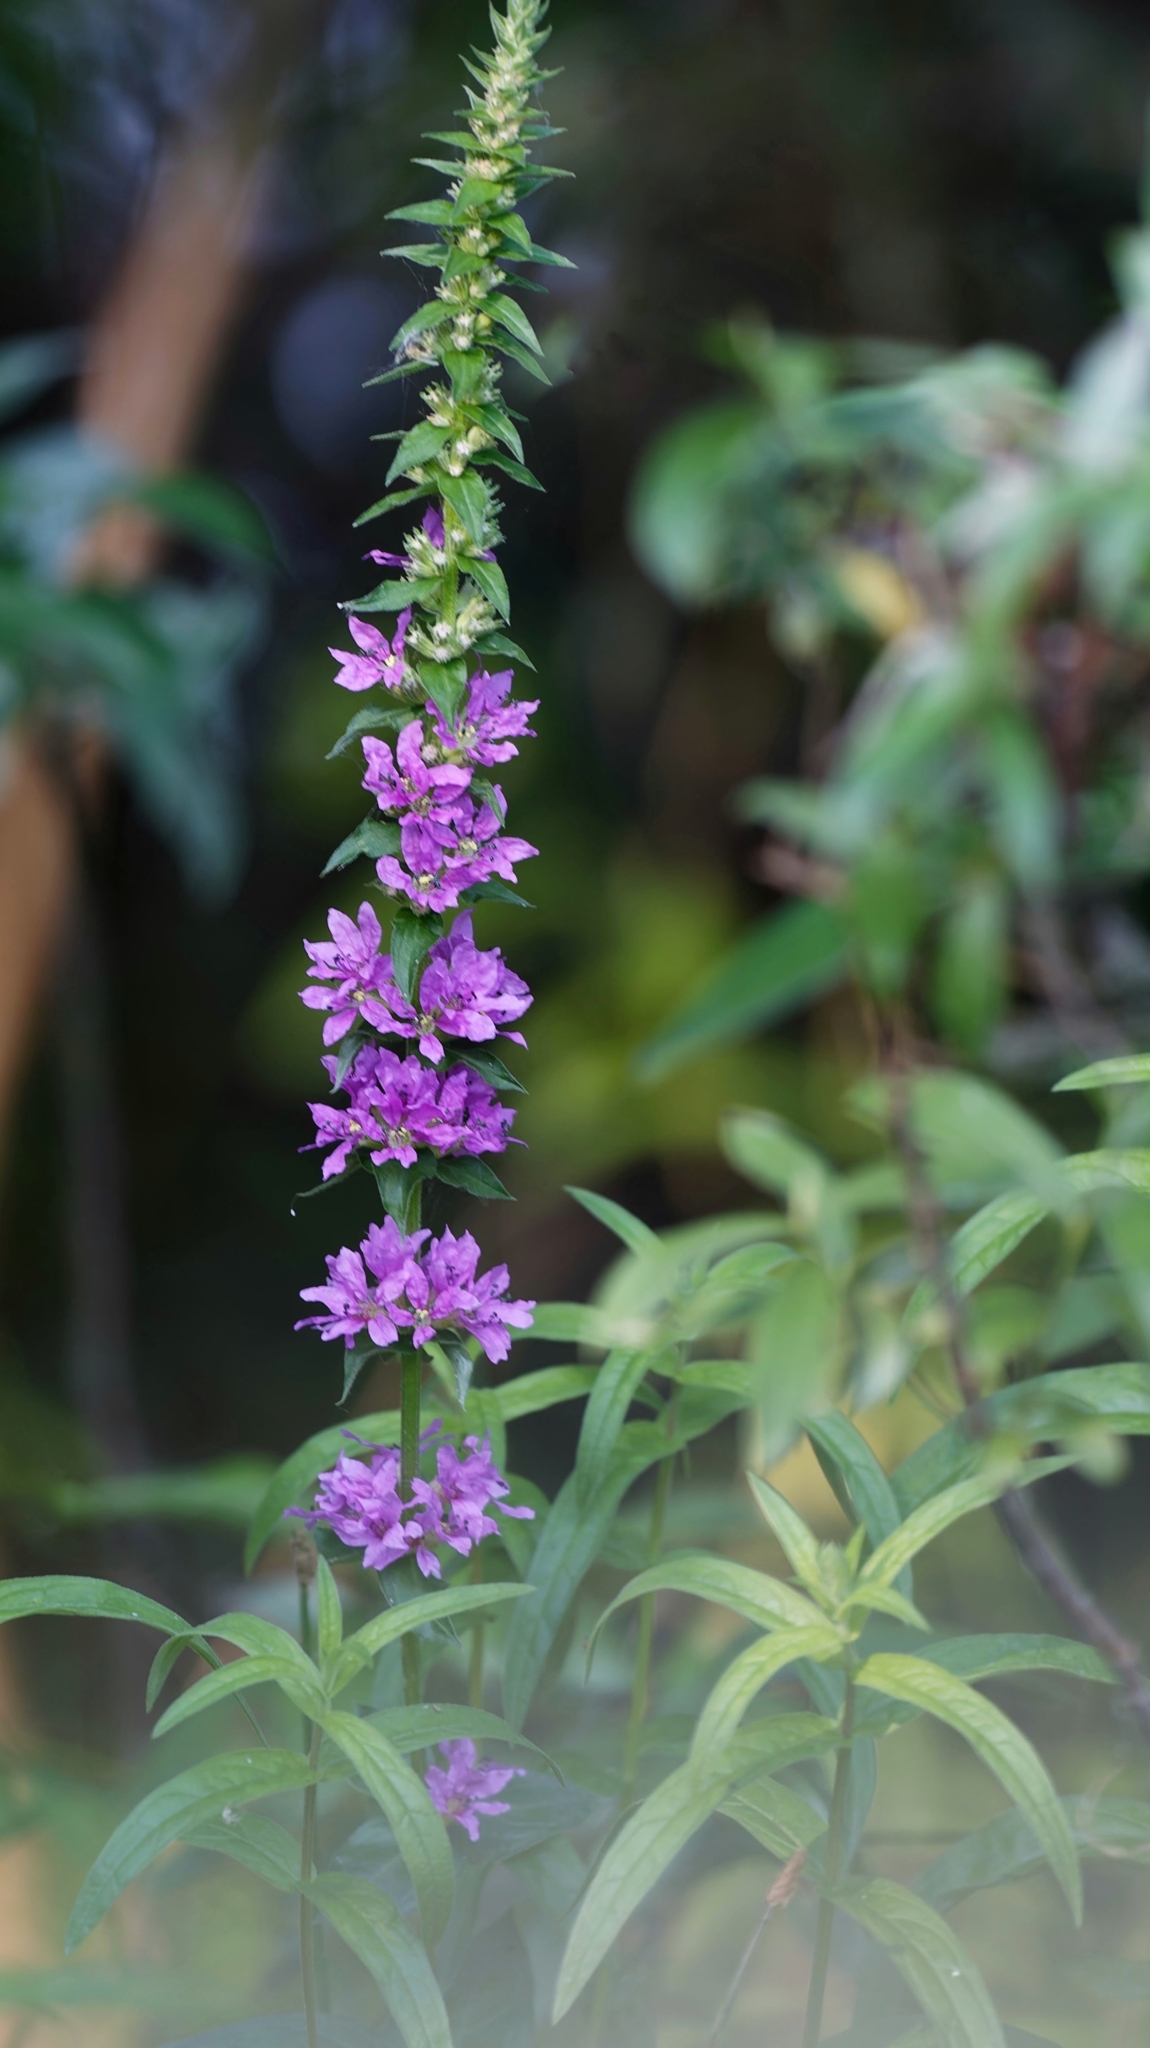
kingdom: Plantae
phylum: Tracheophyta
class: Magnoliopsida
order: Myrtales
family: Lythraceae
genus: Lythrum
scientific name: Lythrum salicaria
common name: Purple loosestrife
